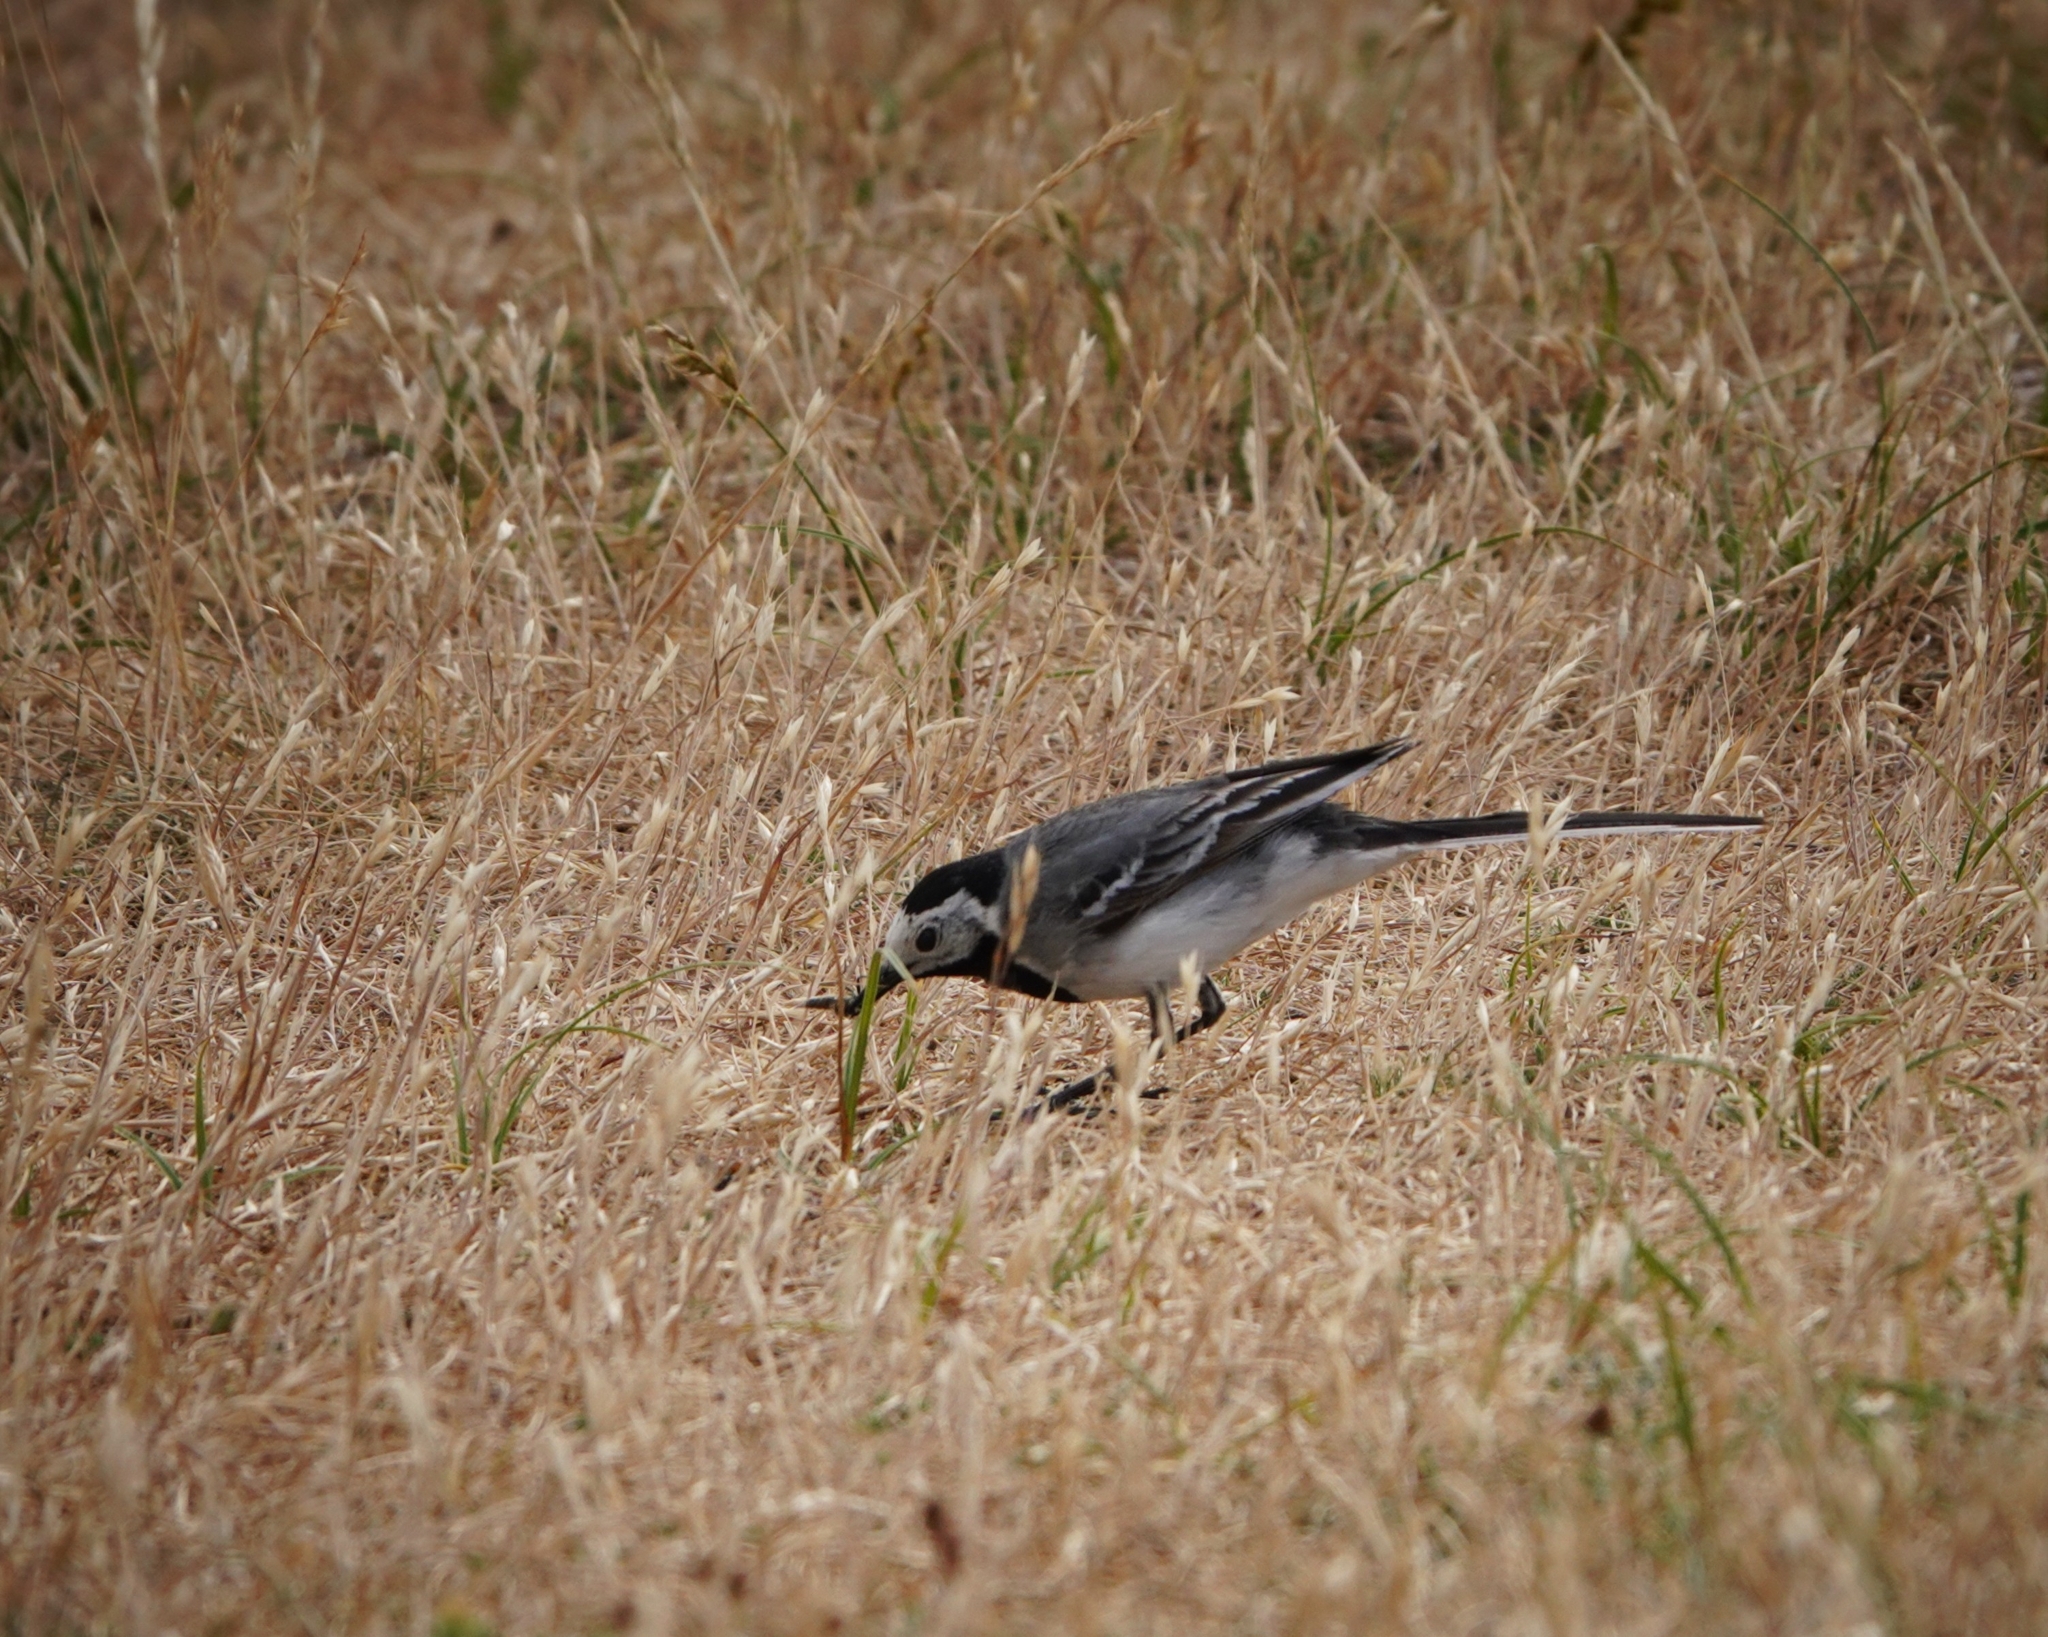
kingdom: Animalia
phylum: Chordata
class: Aves
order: Passeriformes
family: Motacillidae
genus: Motacilla
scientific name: Motacilla alba
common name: White wagtail
